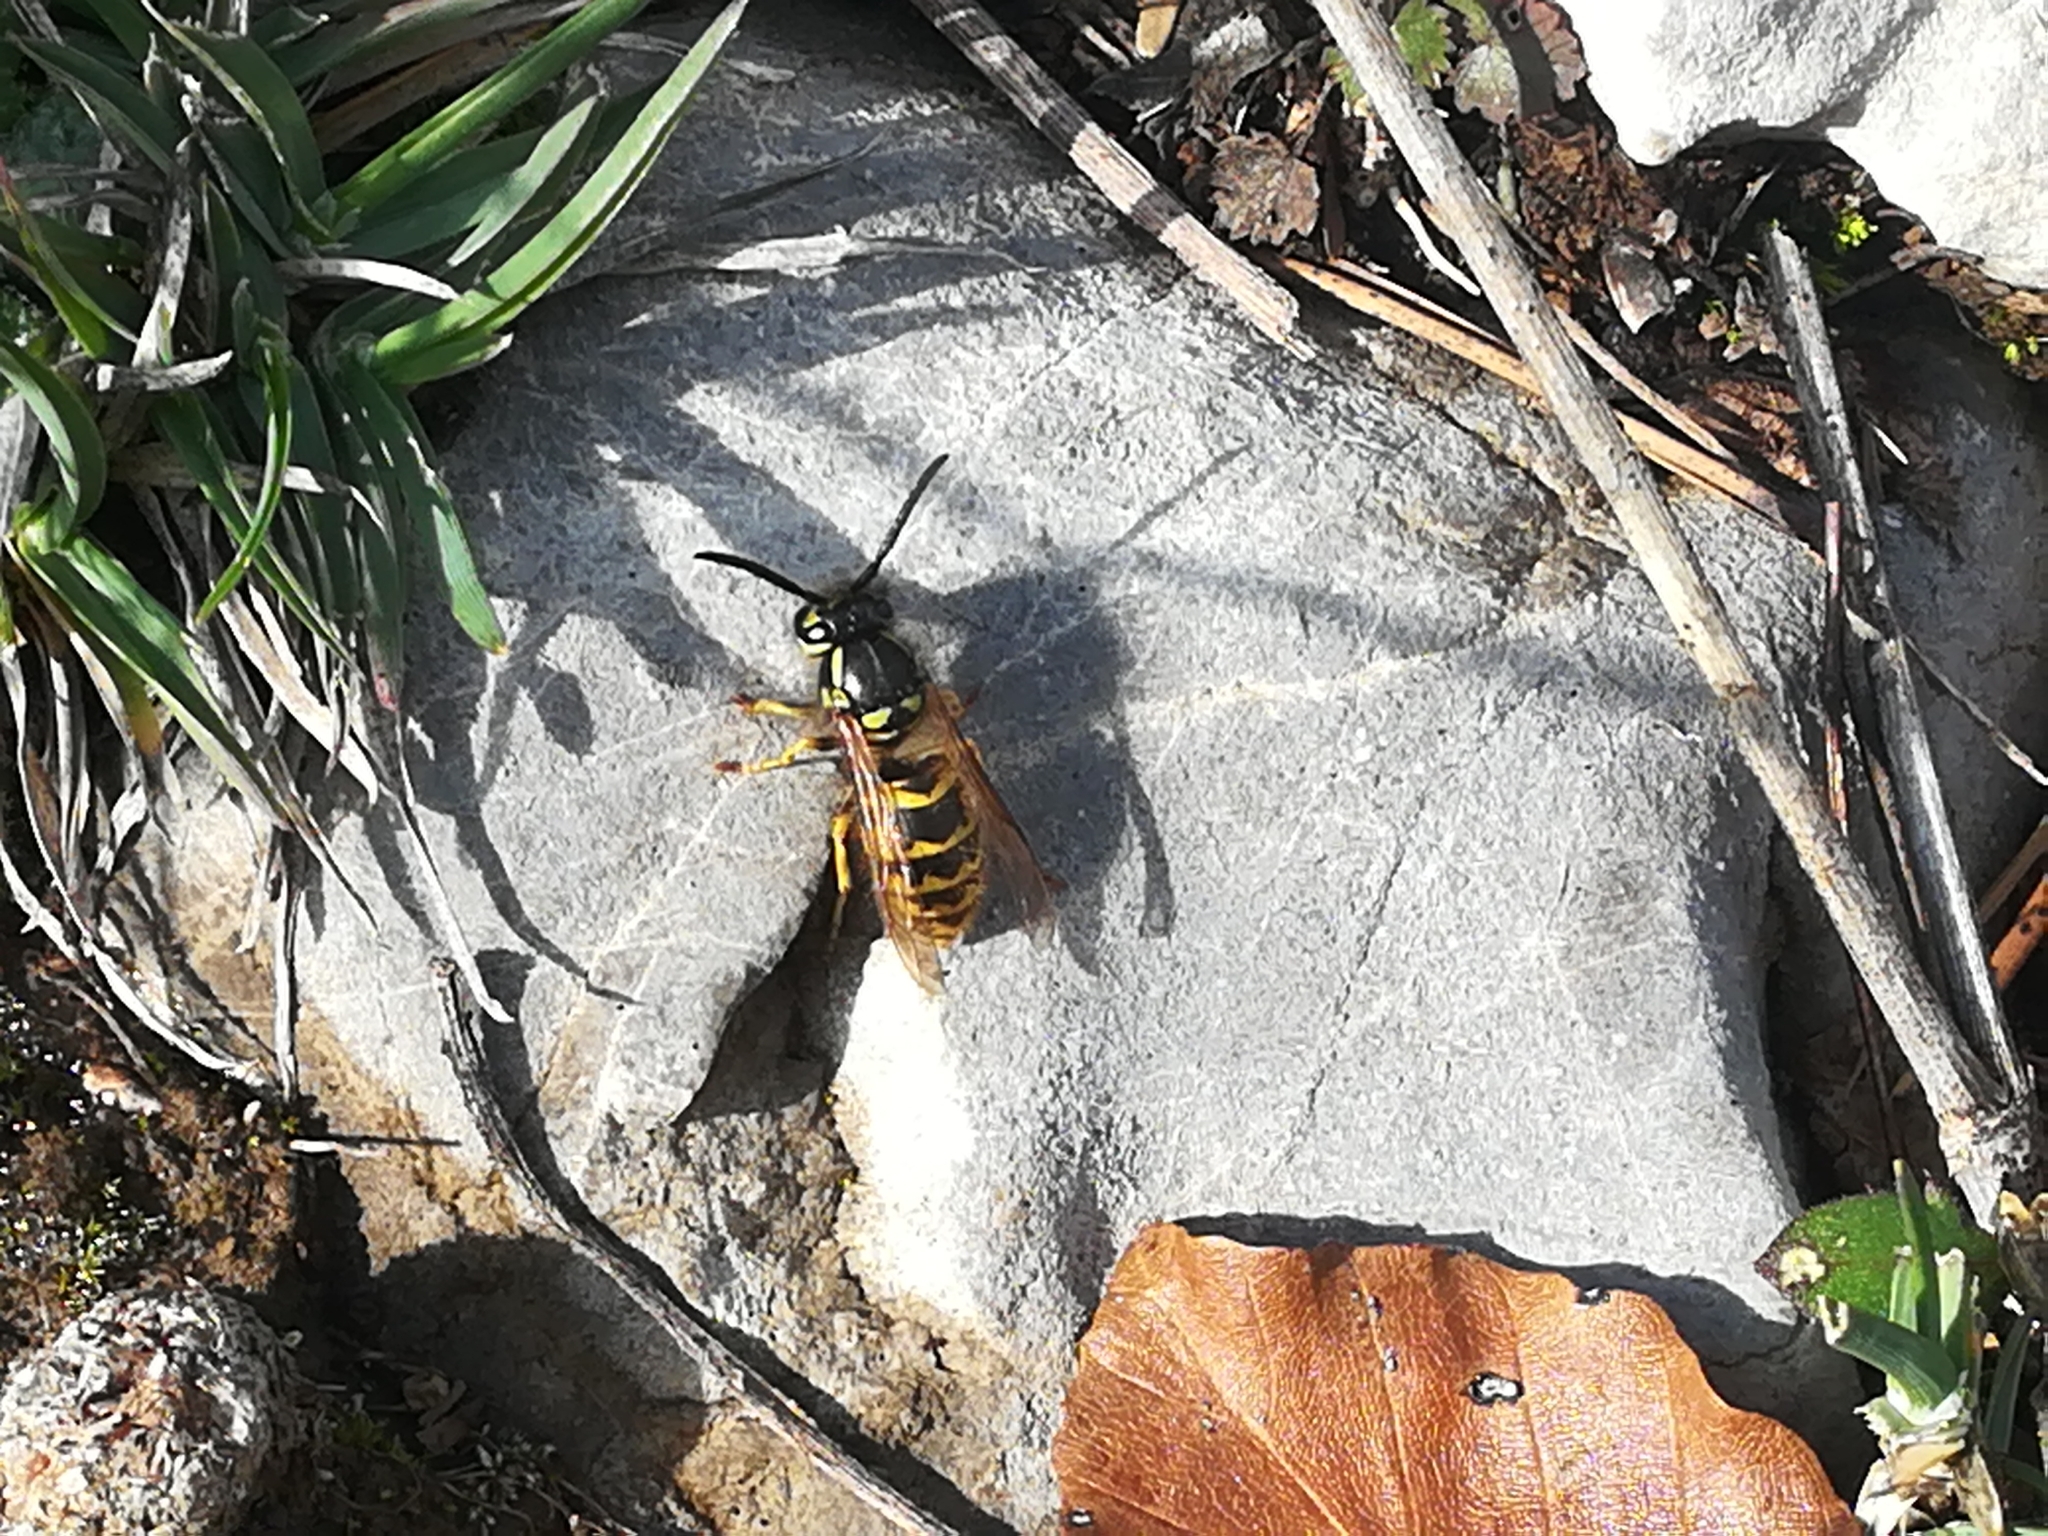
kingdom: Animalia
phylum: Arthropoda
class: Insecta
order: Hymenoptera
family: Vespidae
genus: Vespula
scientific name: Vespula vulgaris
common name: Common wasp
